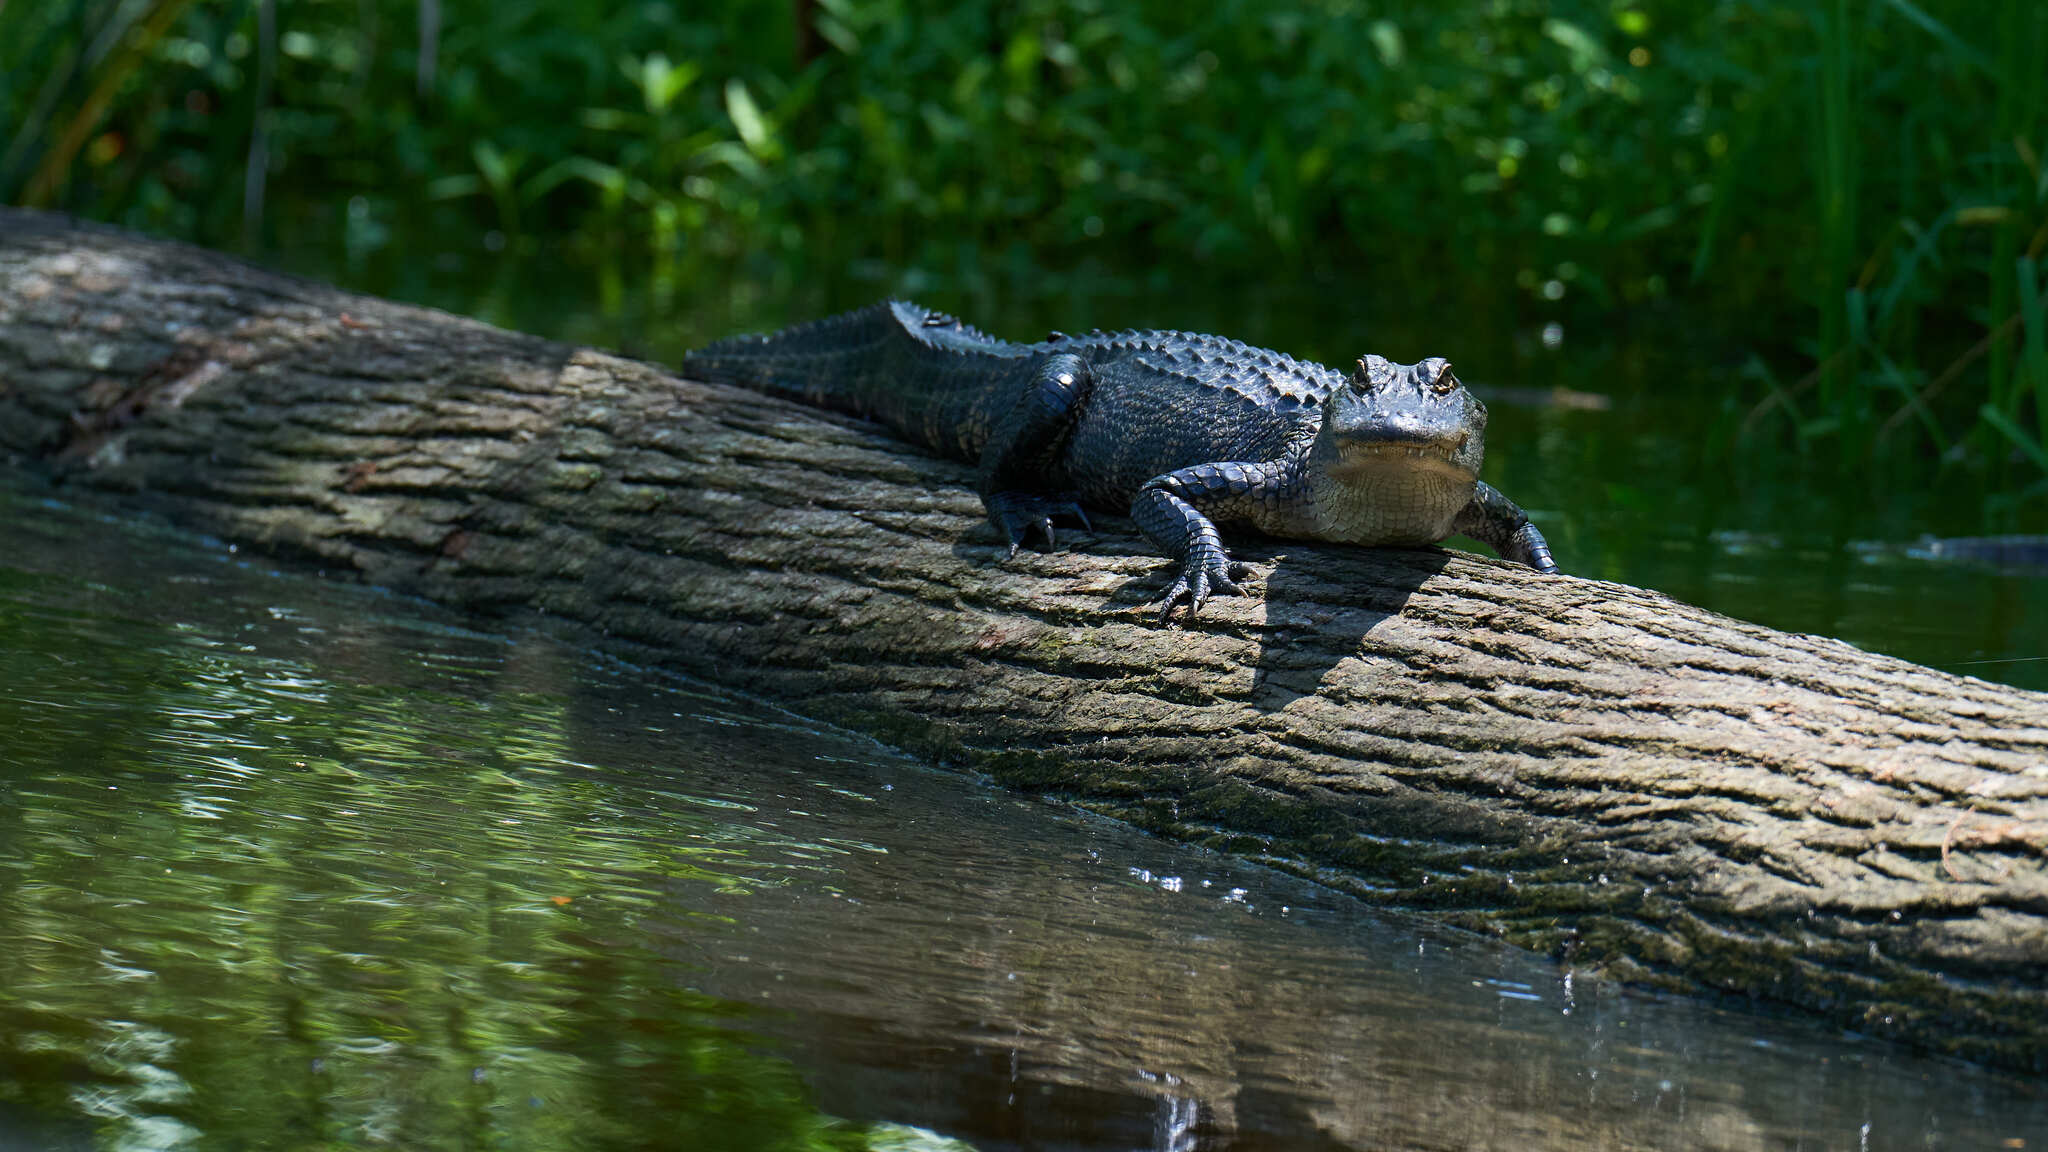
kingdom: Animalia
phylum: Chordata
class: Crocodylia
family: Alligatoridae
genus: Alligator
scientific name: Alligator mississippiensis
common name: American alligator
